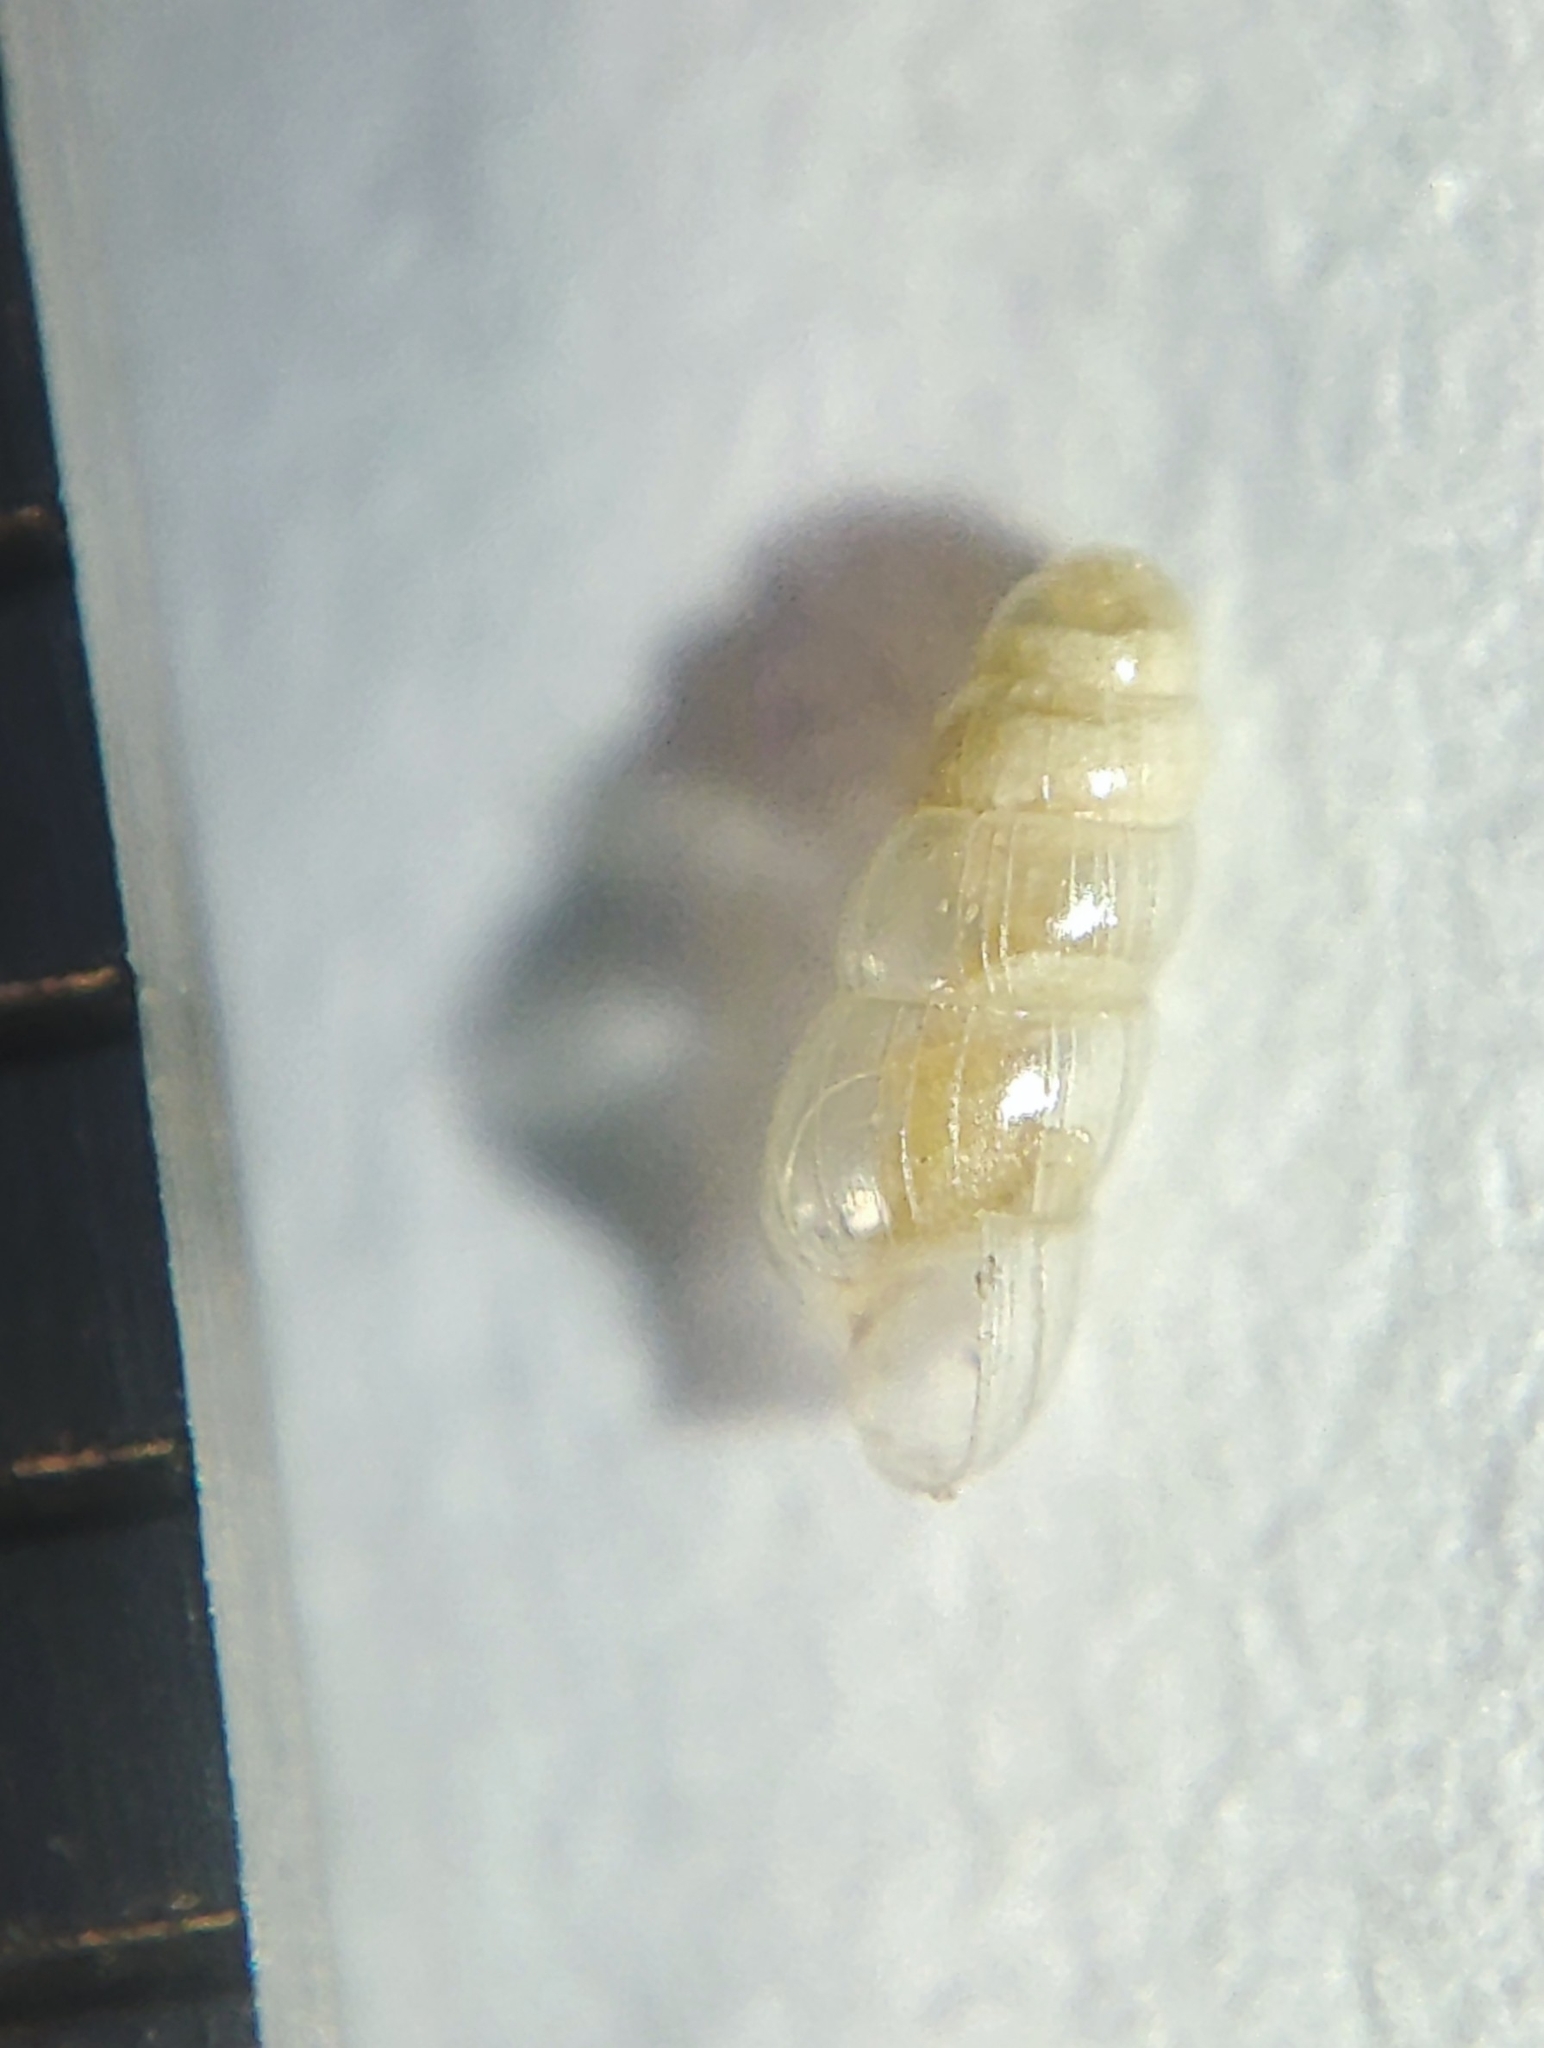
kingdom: Animalia
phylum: Mollusca
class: Gastropoda
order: Architaenioglossa
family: Aciculidae
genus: Acicula
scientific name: Acicula parcelineata
